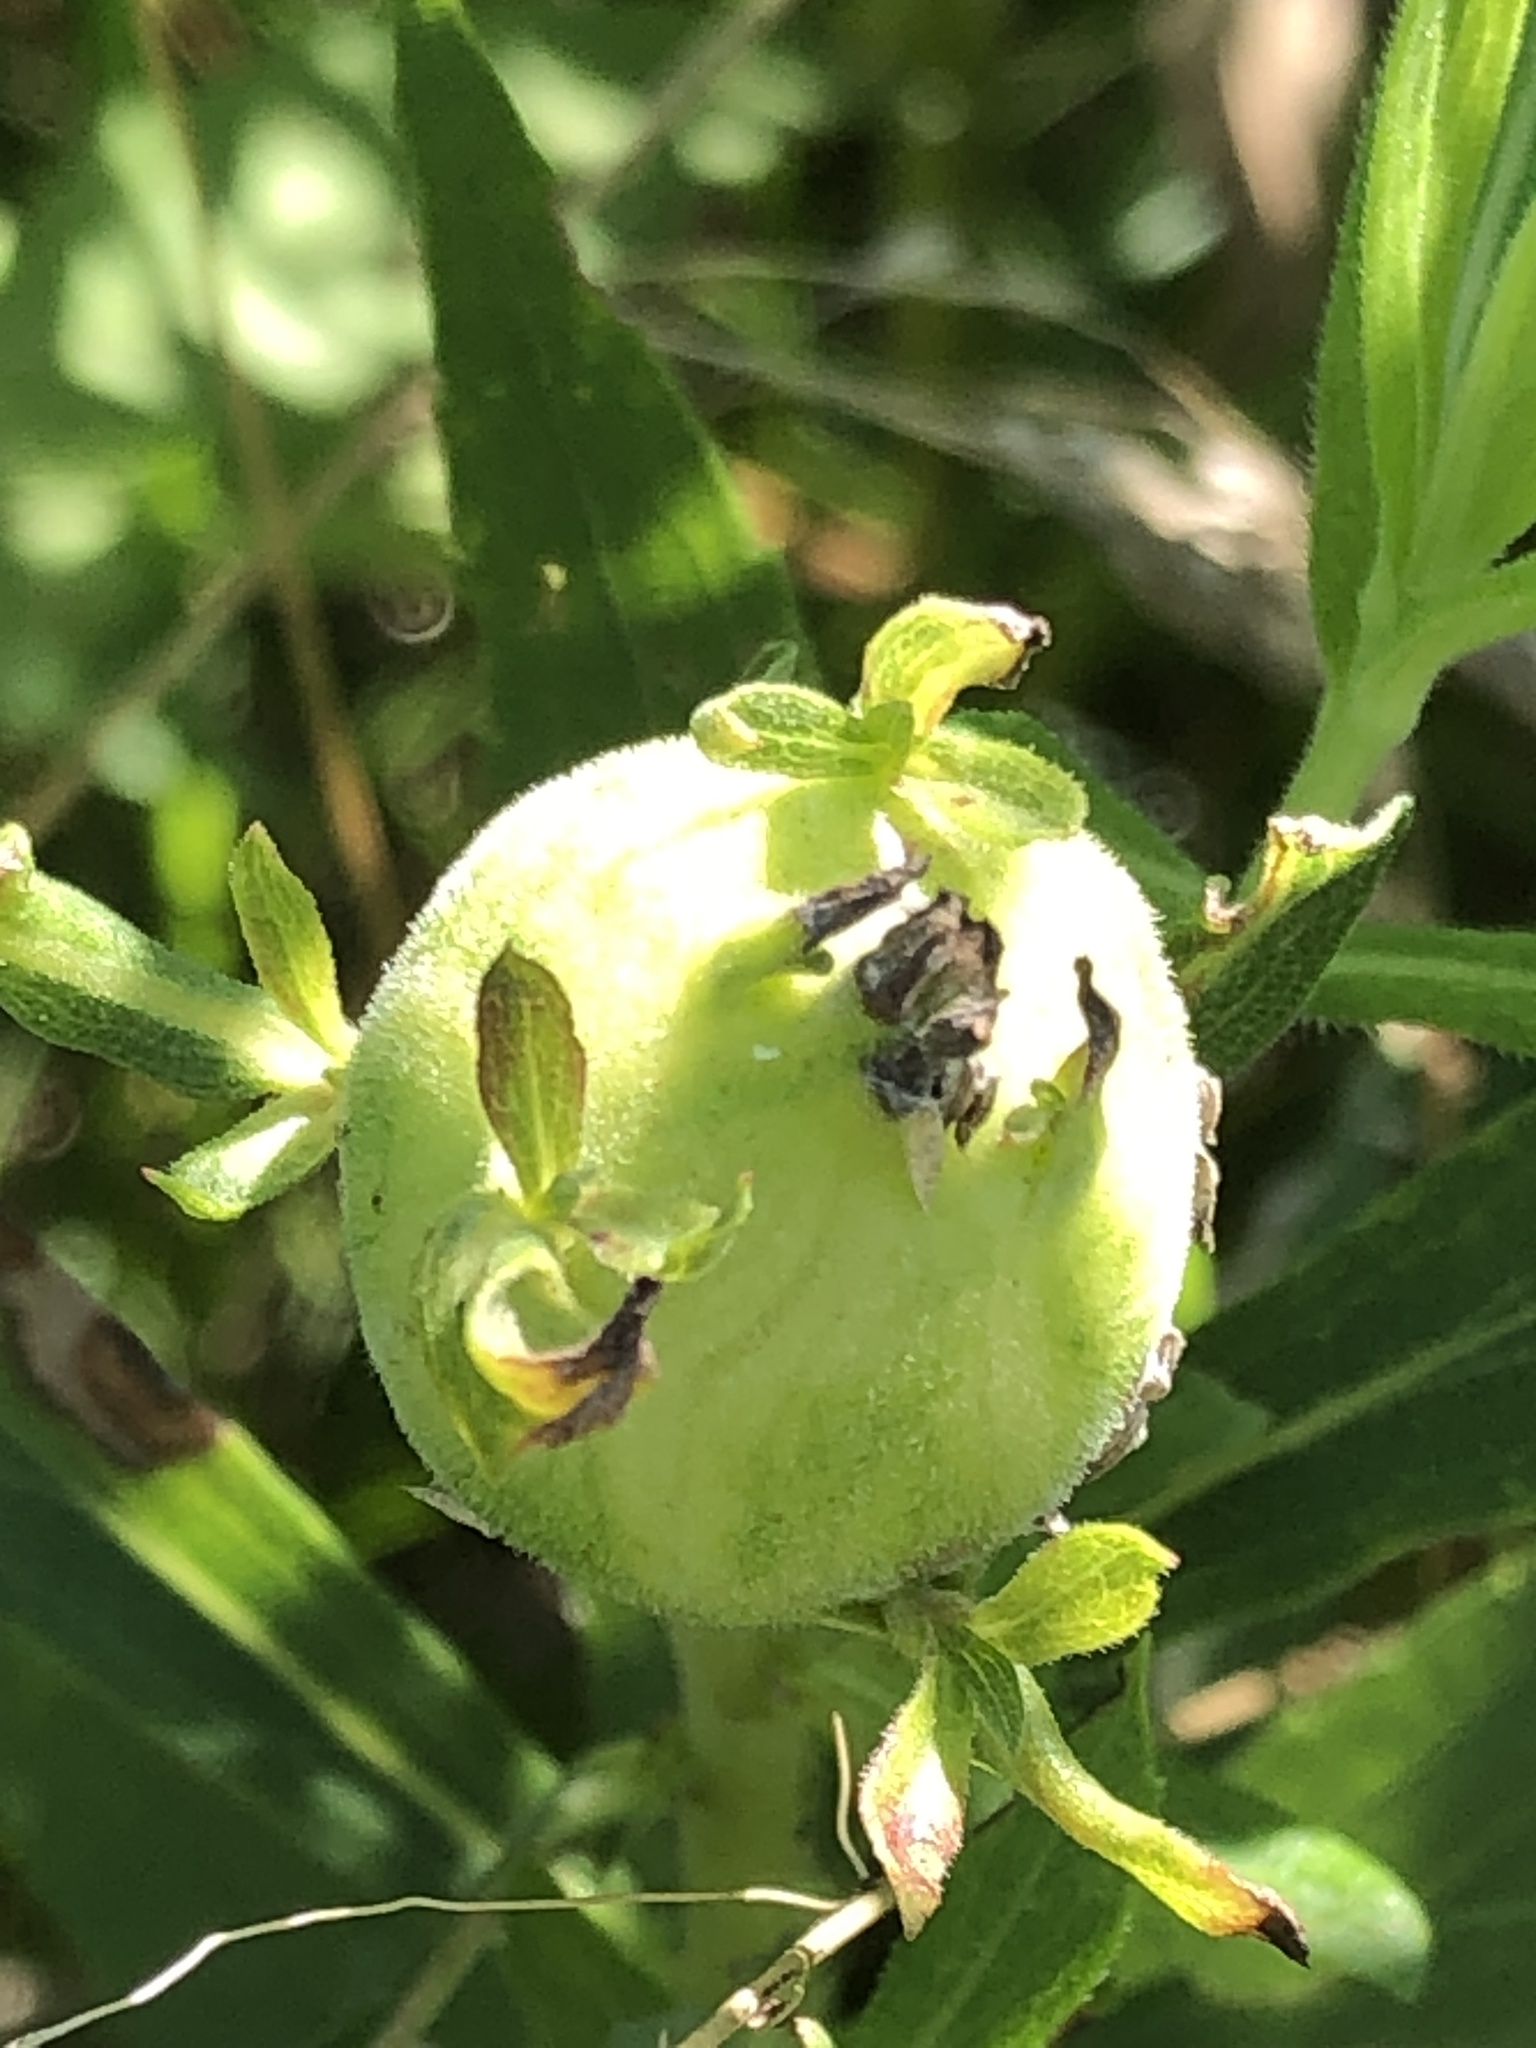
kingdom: Animalia
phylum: Arthropoda
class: Insecta
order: Diptera
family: Tephritidae
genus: Eurosta
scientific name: Eurosta solidaginis
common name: Goldenrod gall fly
